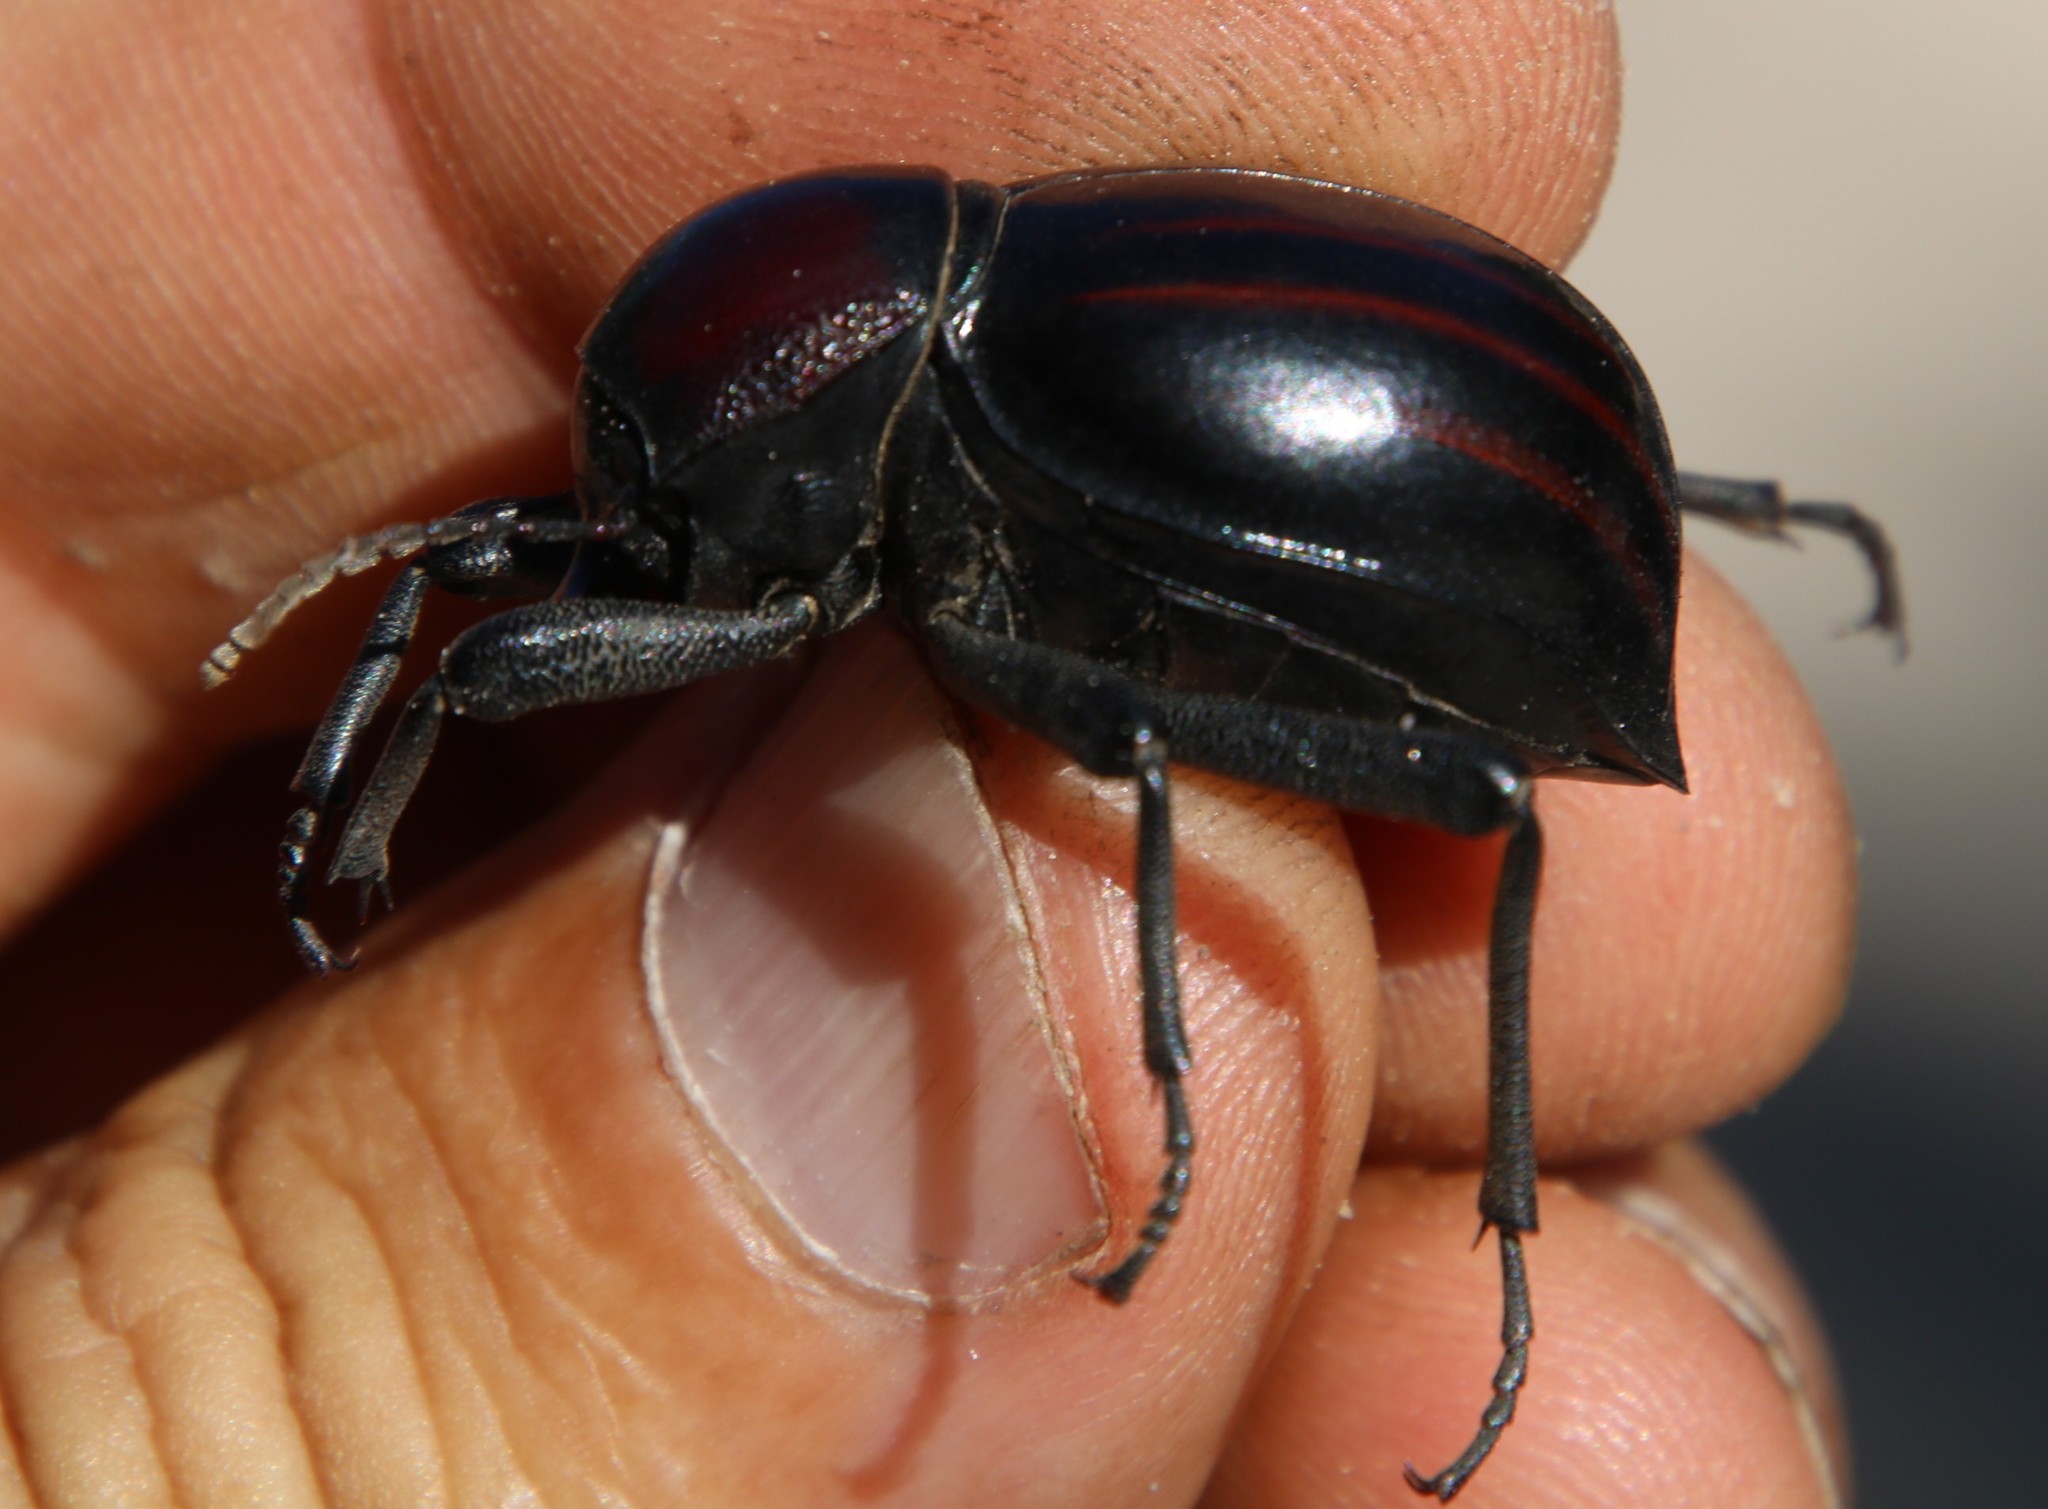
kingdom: Animalia
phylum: Arthropoda
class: Insecta
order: Coleoptera
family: Tenebrionidae
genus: Mariazofia
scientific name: Mariazofia
